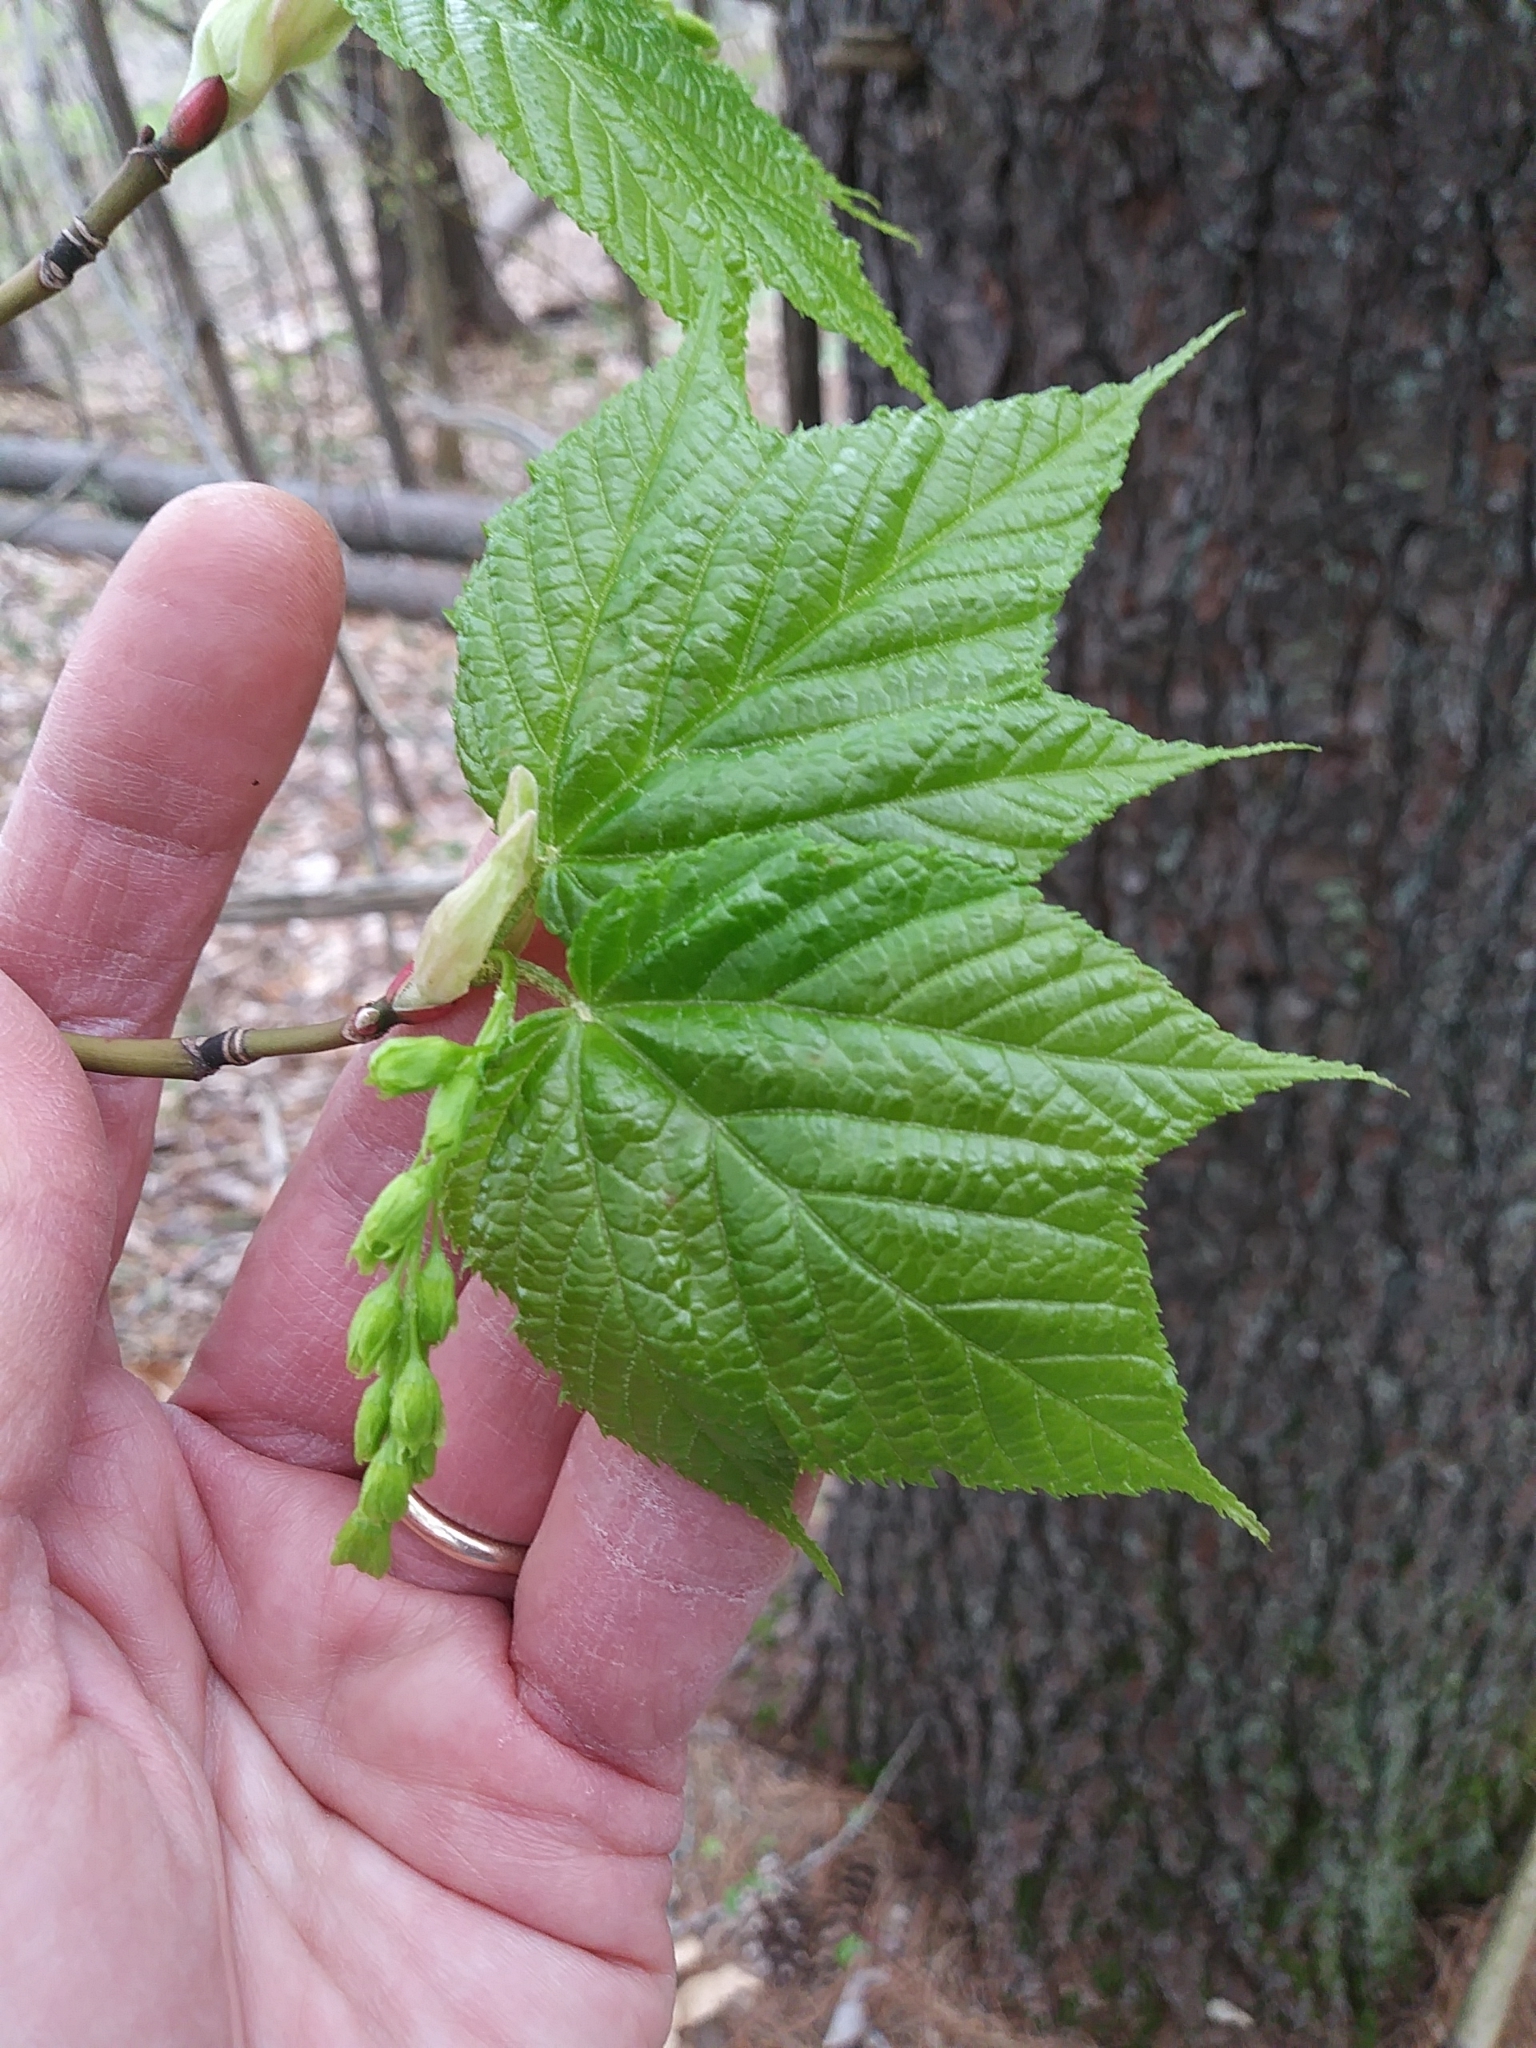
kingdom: Plantae
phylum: Tracheophyta
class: Magnoliopsida
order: Sapindales
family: Sapindaceae
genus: Acer
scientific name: Acer pensylvanicum
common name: Moosewood
